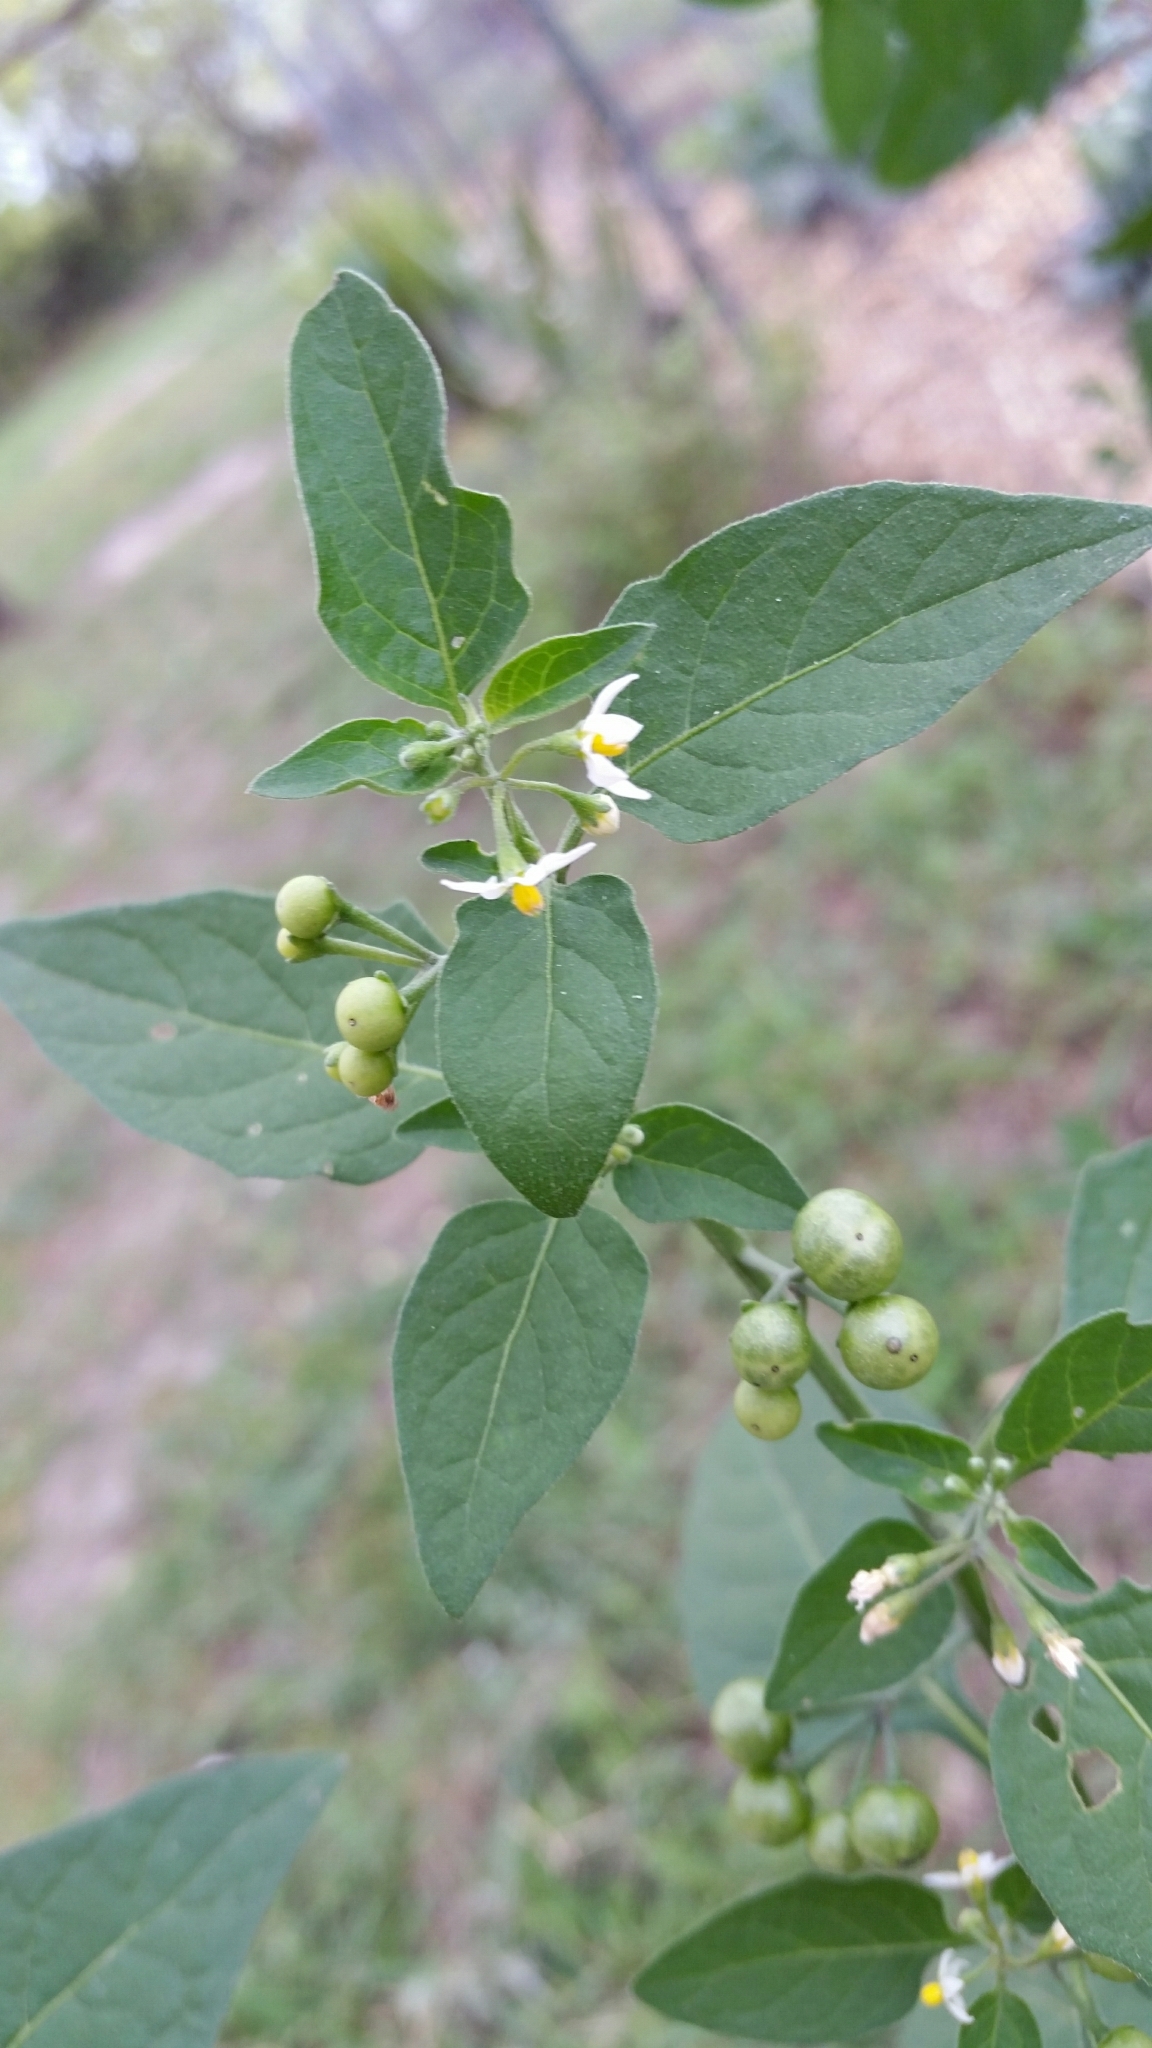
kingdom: Plantae
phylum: Tracheophyta
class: Magnoliopsida
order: Solanales
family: Solanaceae
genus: Solanum
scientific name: Solanum americanum
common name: American black nightshade
